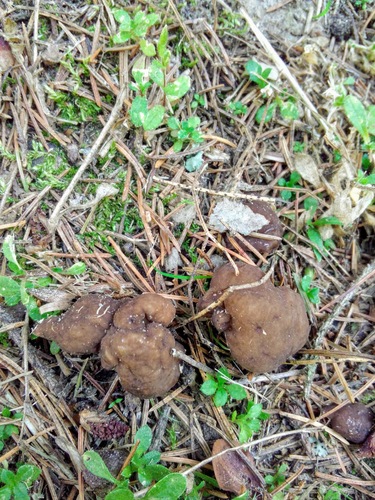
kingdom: Fungi
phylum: Ascomycota
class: Pezizomycetes
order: Pezizales
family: Helvellaceae
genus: Helvella
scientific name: Helvella elastica
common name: Elastic saddle
